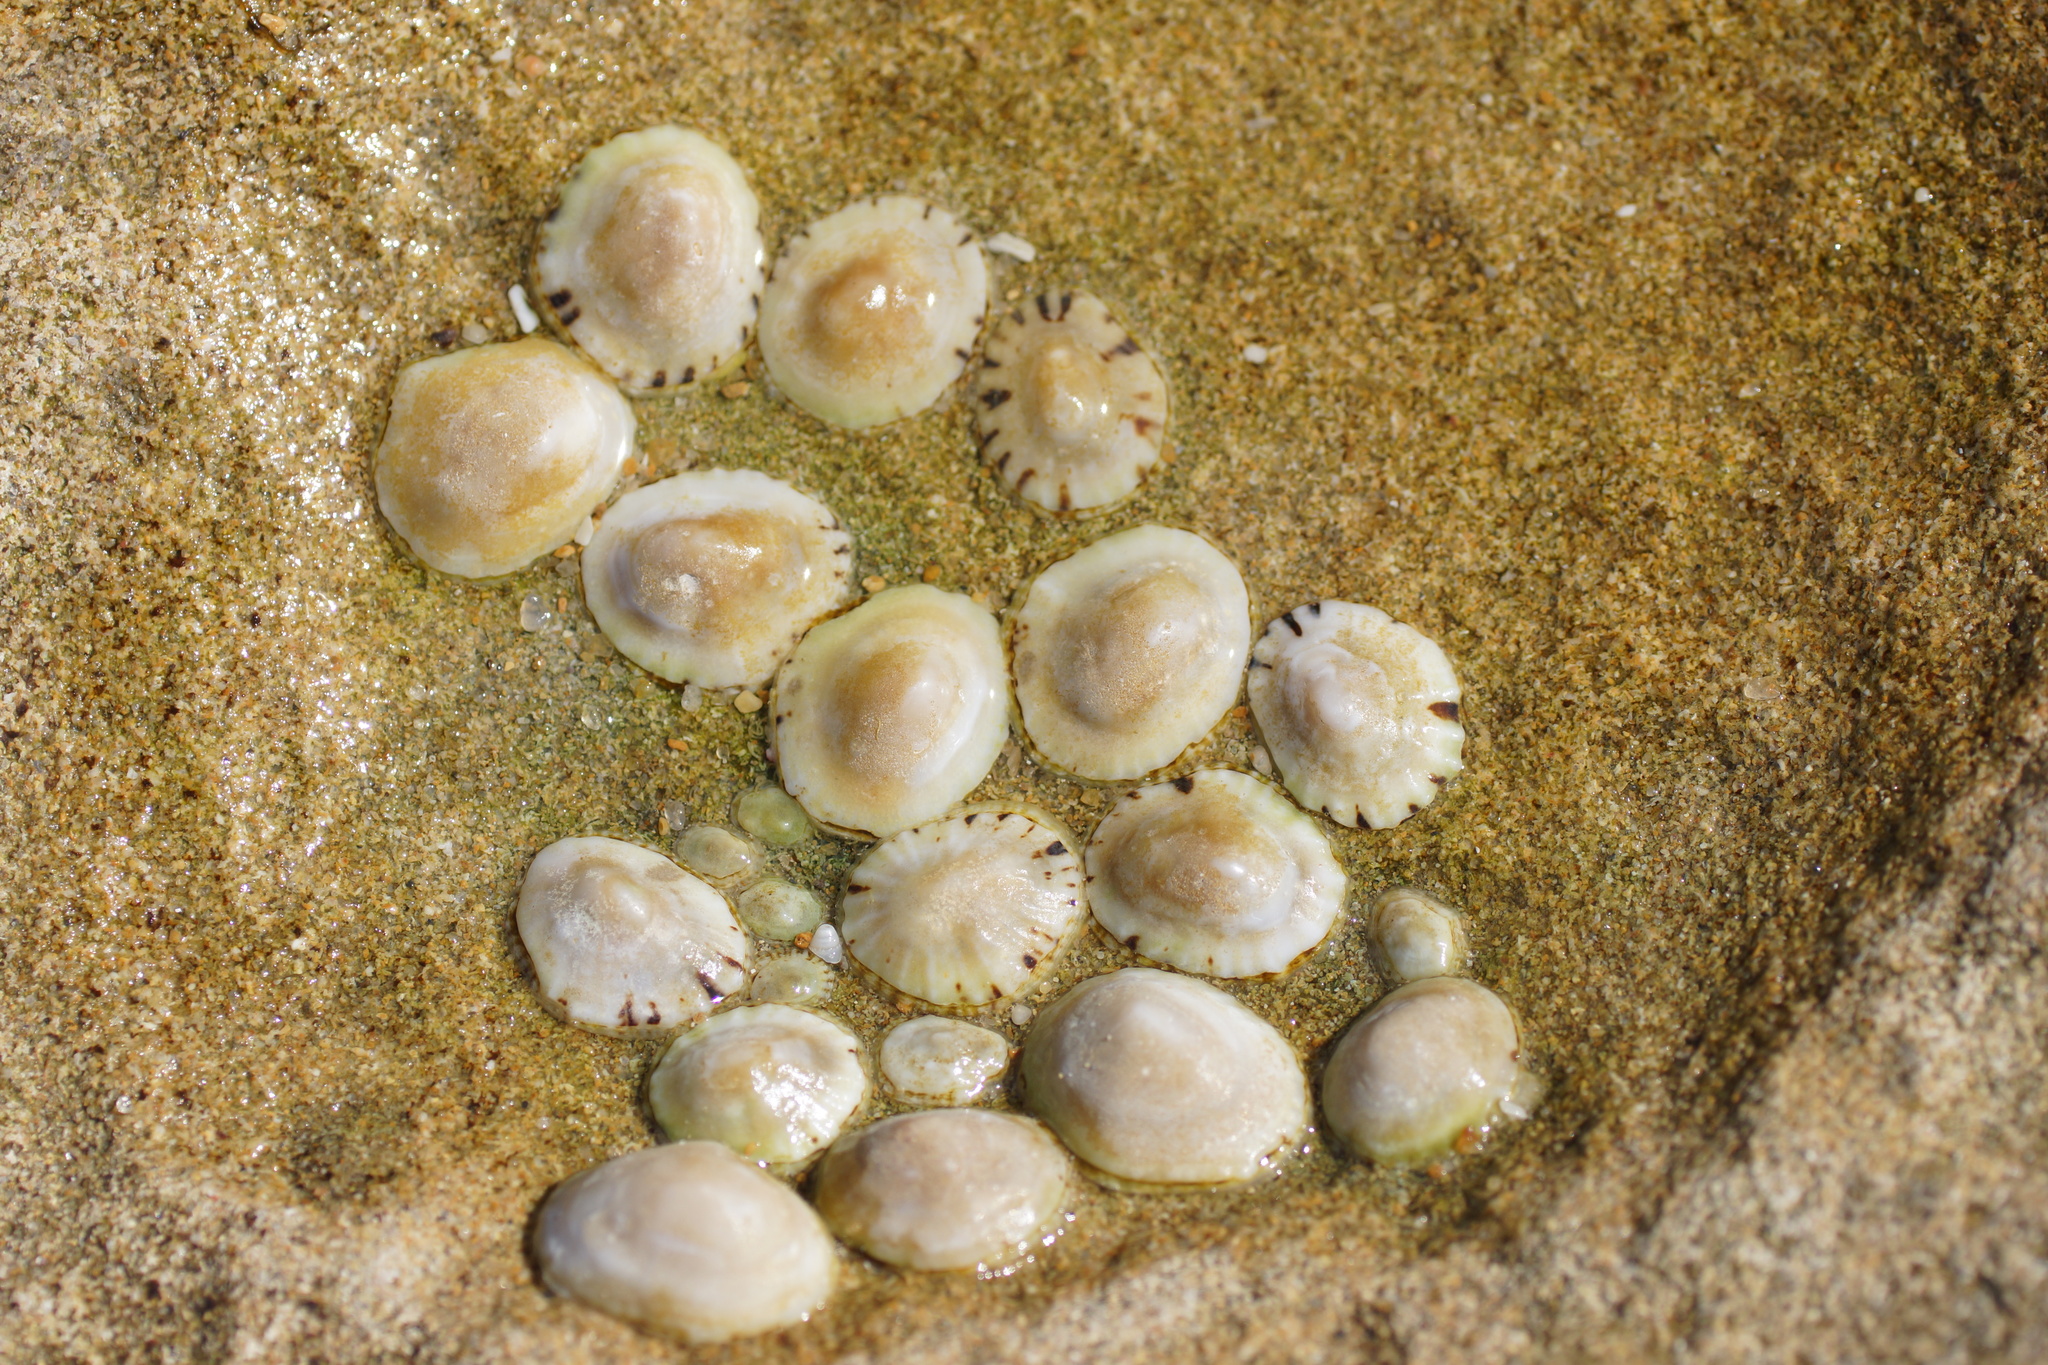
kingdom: Animalia
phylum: Mollusca
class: Gastropoda
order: Siphonariida
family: Siphonariidae
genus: Siphonaria
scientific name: Siphonaria zelandica
